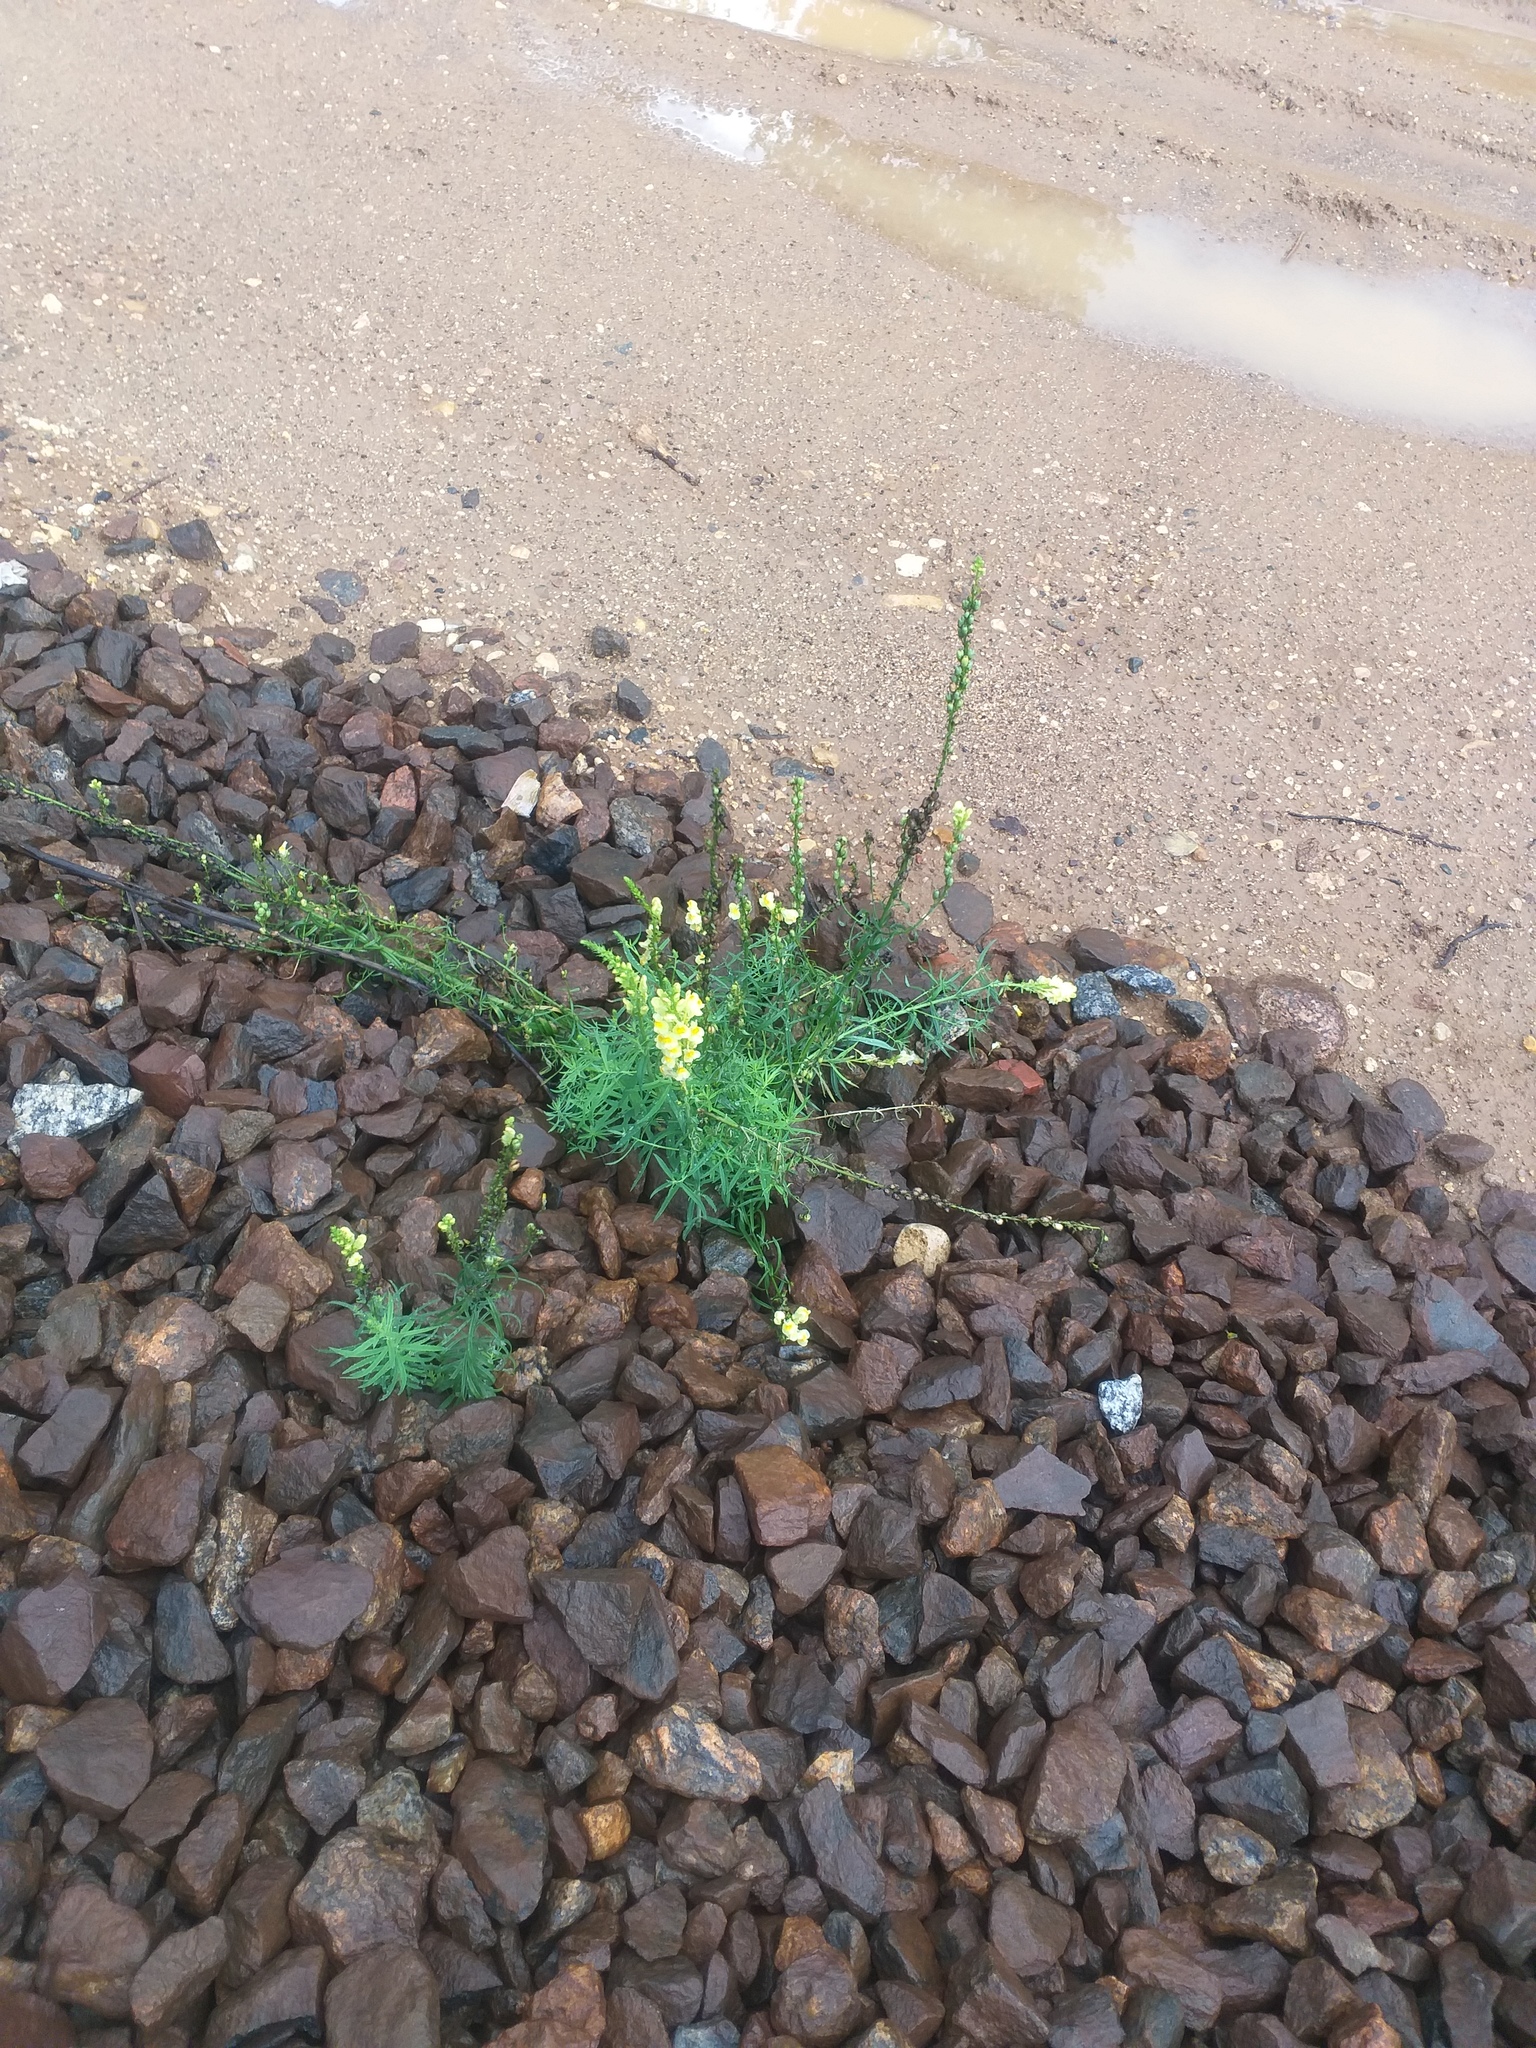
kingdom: Plantae
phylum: Tracheophyta
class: Magnoliopsida
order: Lamiales
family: Plantaginaceae
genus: Linaria
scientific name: Linaria vulgaris
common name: Butter and eggs
